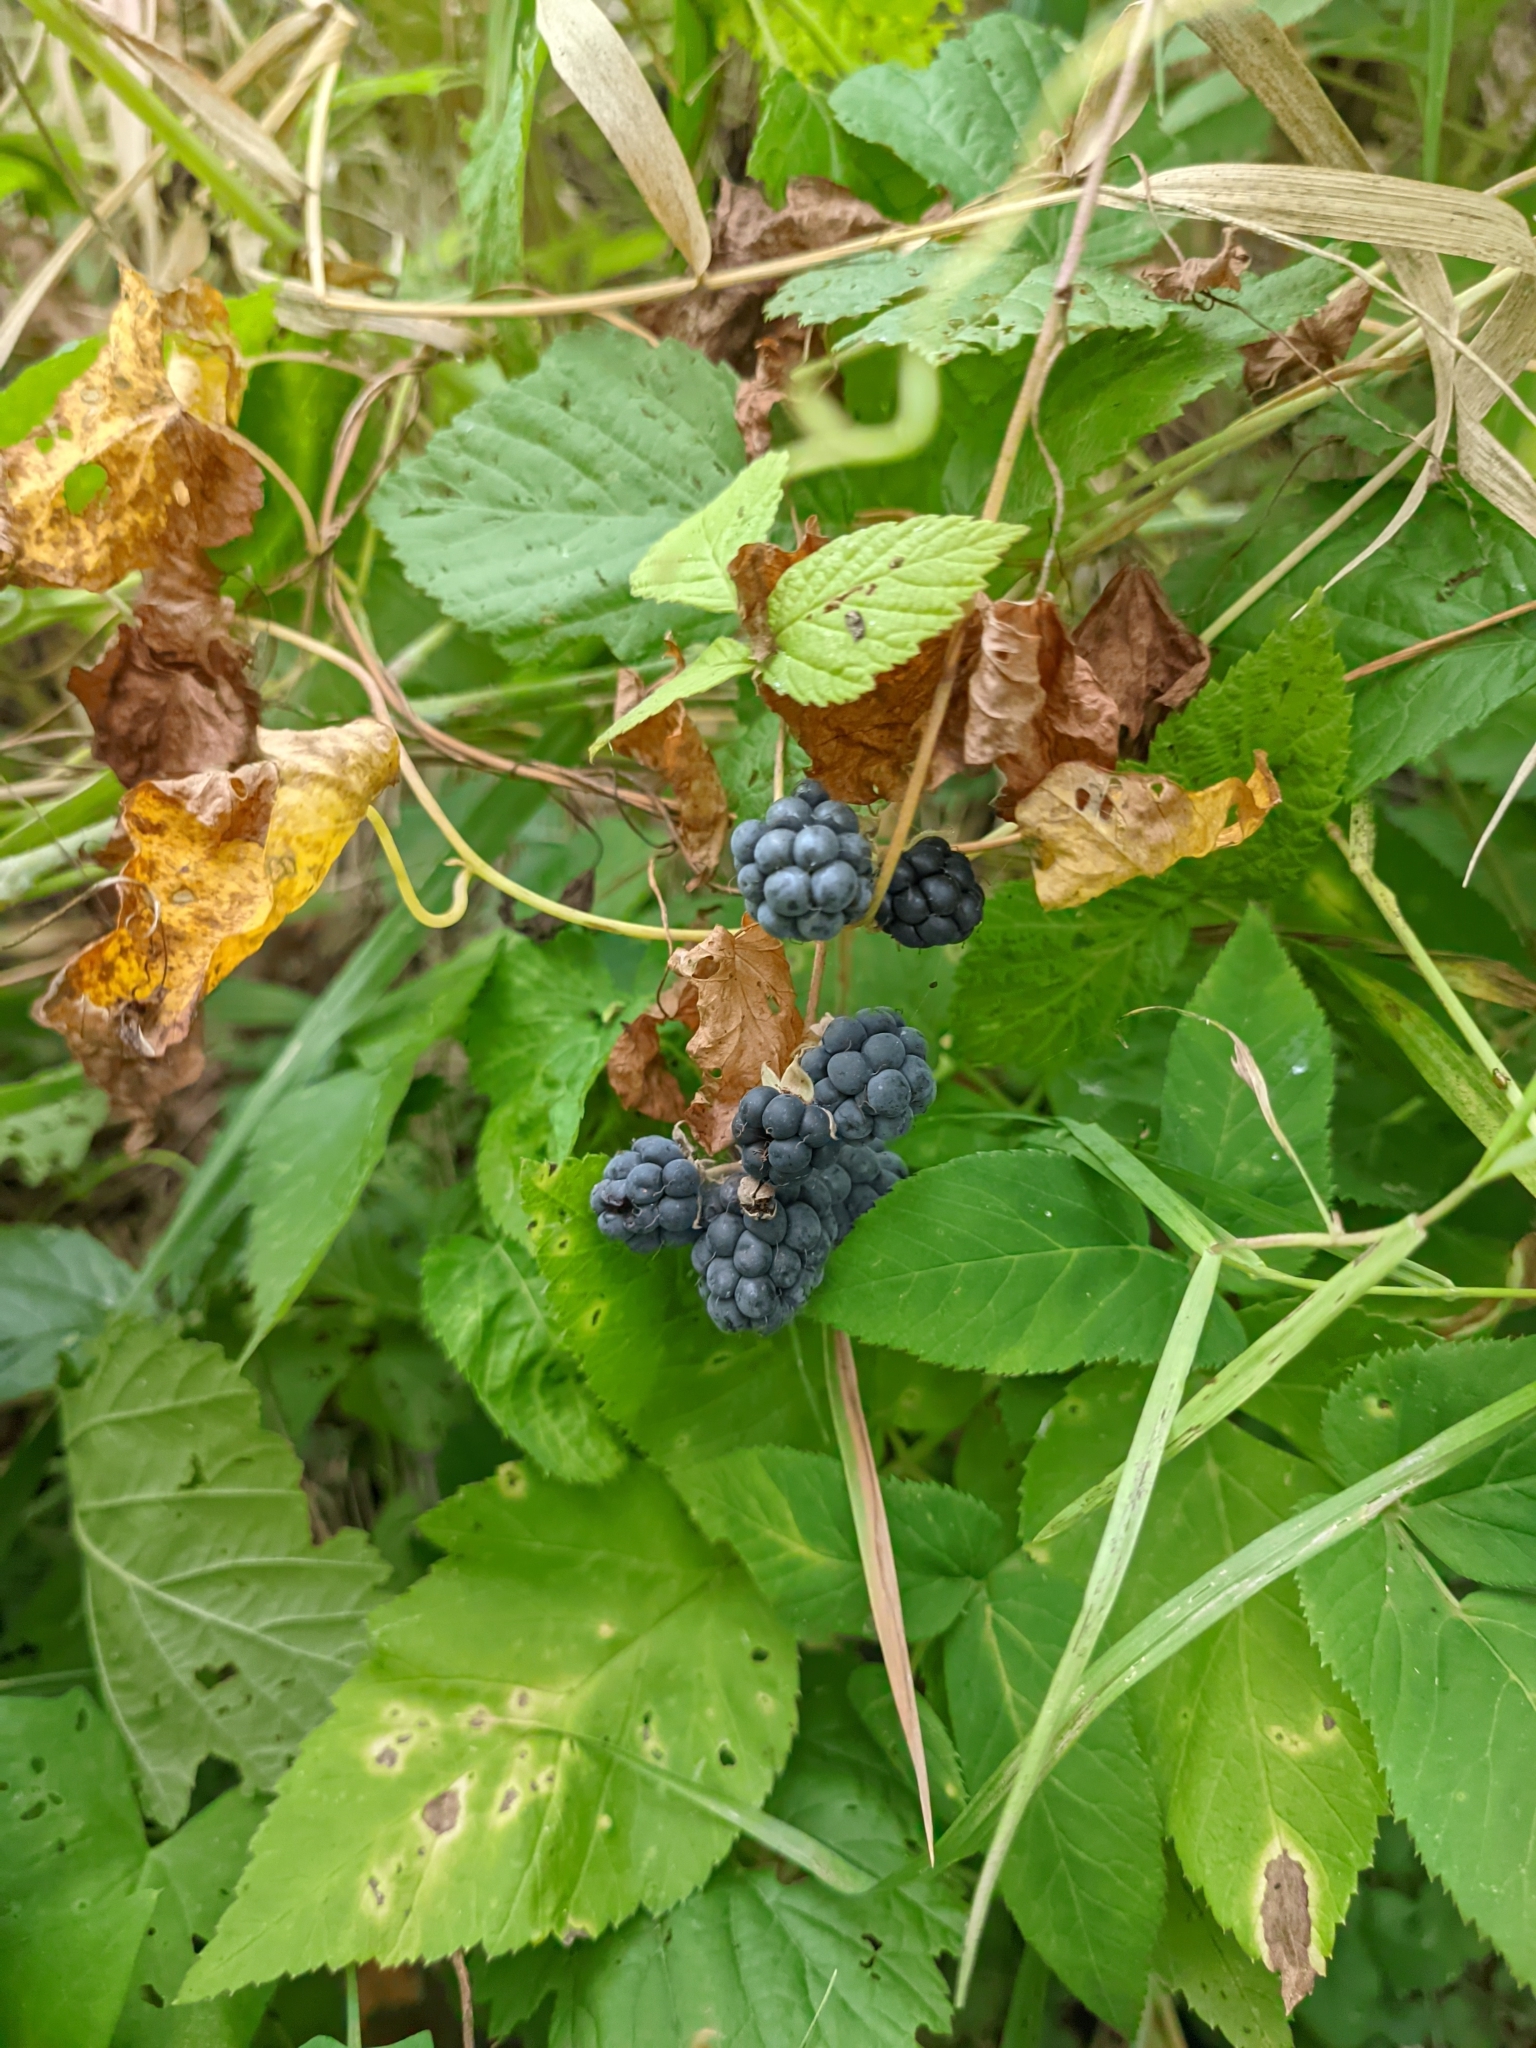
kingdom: Plantae
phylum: Tracheophyta
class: Magnoliopsida
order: Rosales
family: Rosaceae
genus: Rubus
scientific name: Rubus caesius
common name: Dewberry
